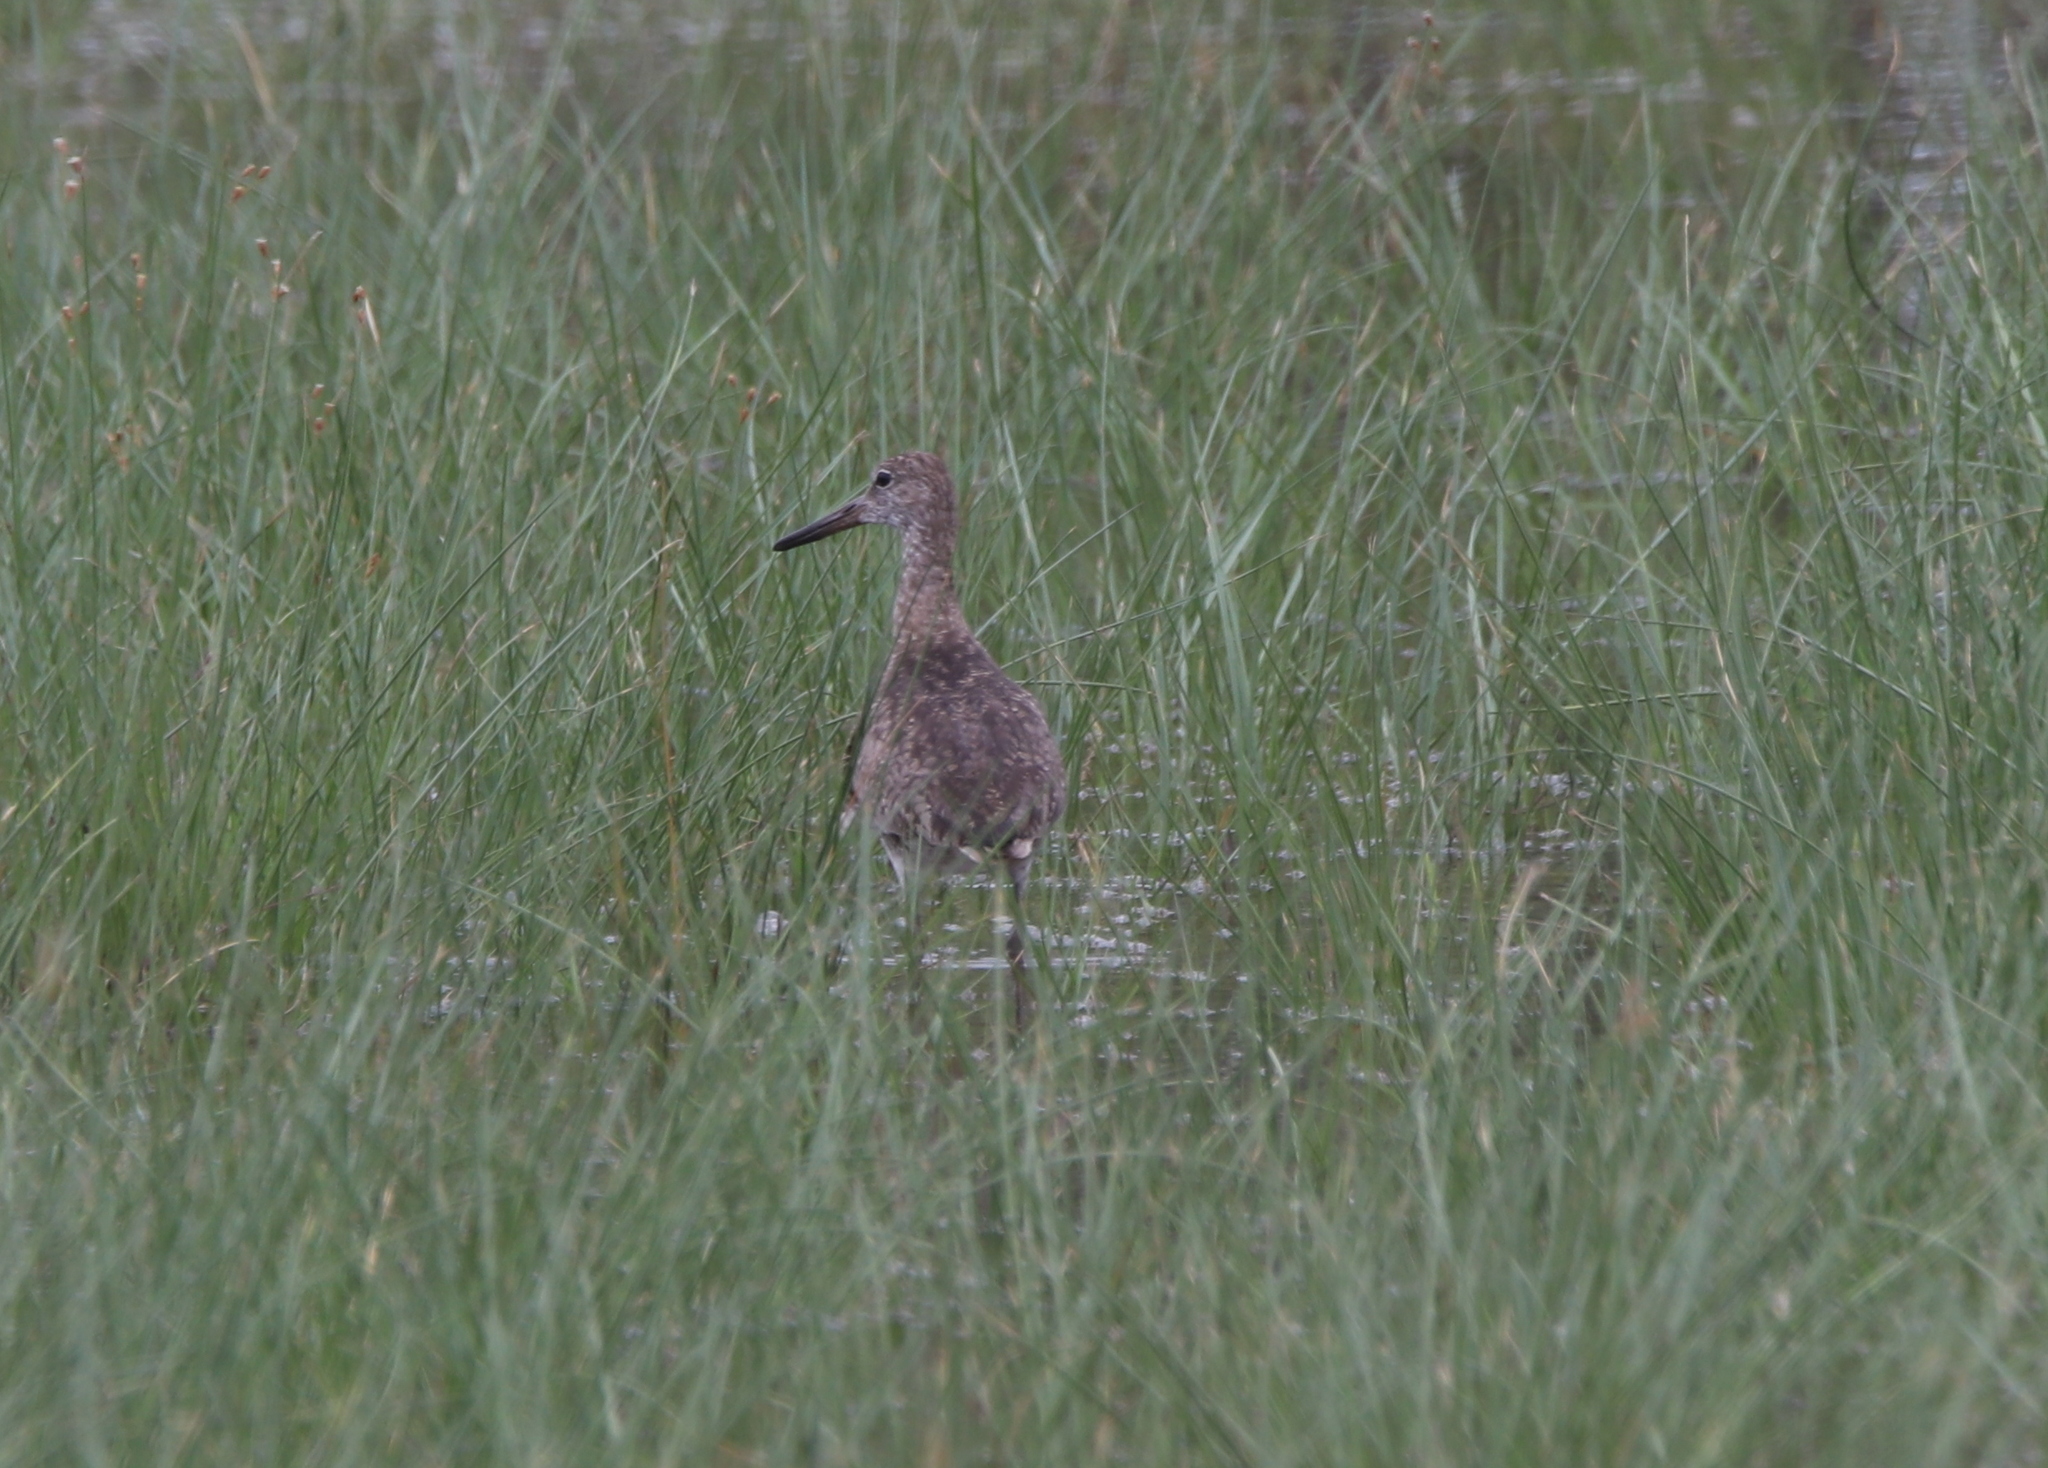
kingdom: Animalia
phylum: Chordata
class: Aves
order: Charadriiformes
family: Scolopacidae
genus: Tringa
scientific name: Tringa semipalmata
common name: Willet
